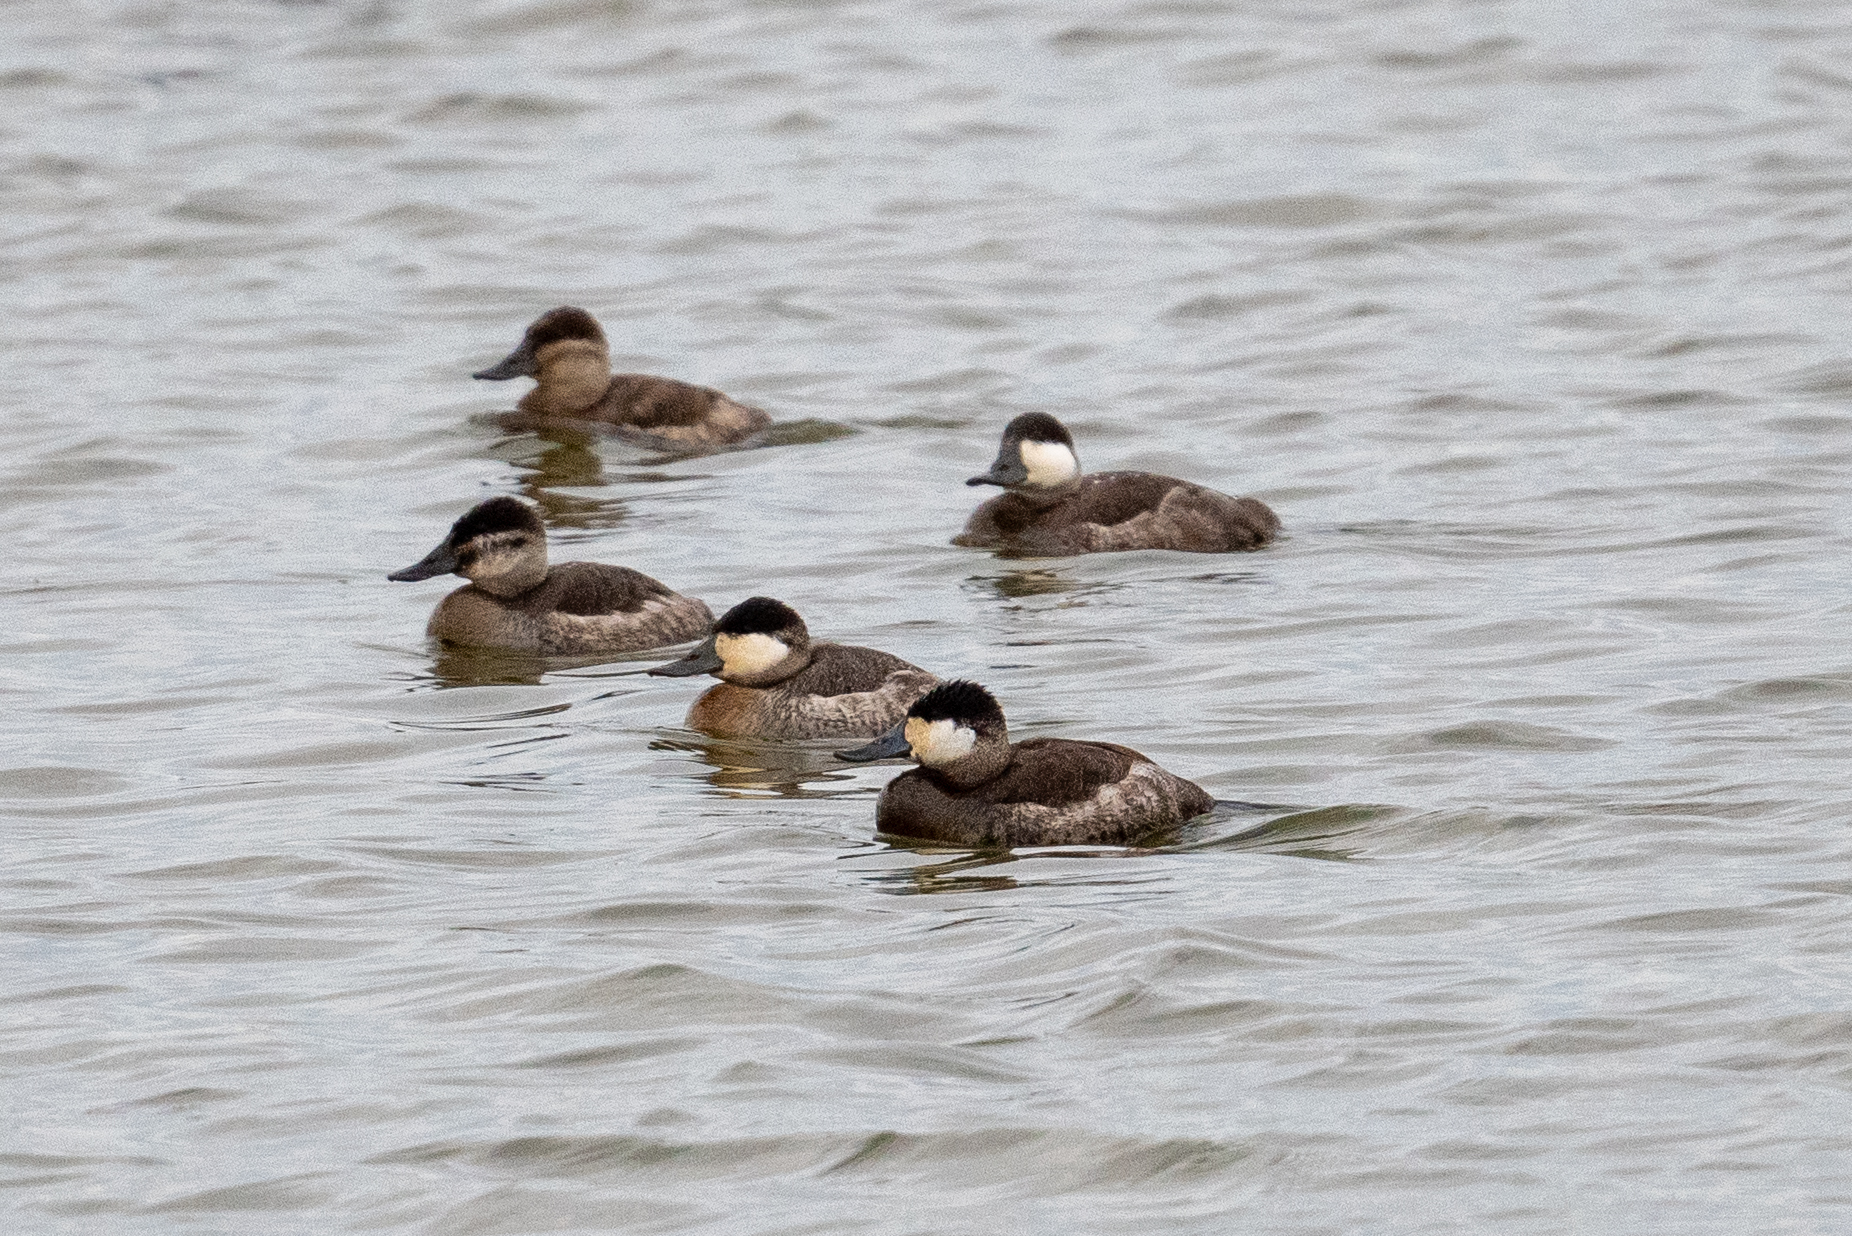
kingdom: Animalia
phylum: Chordata
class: Aves
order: Anseriformes
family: Anatidae
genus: Oxyura
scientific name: Oxyura jamaicensis
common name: Ruddy duck
